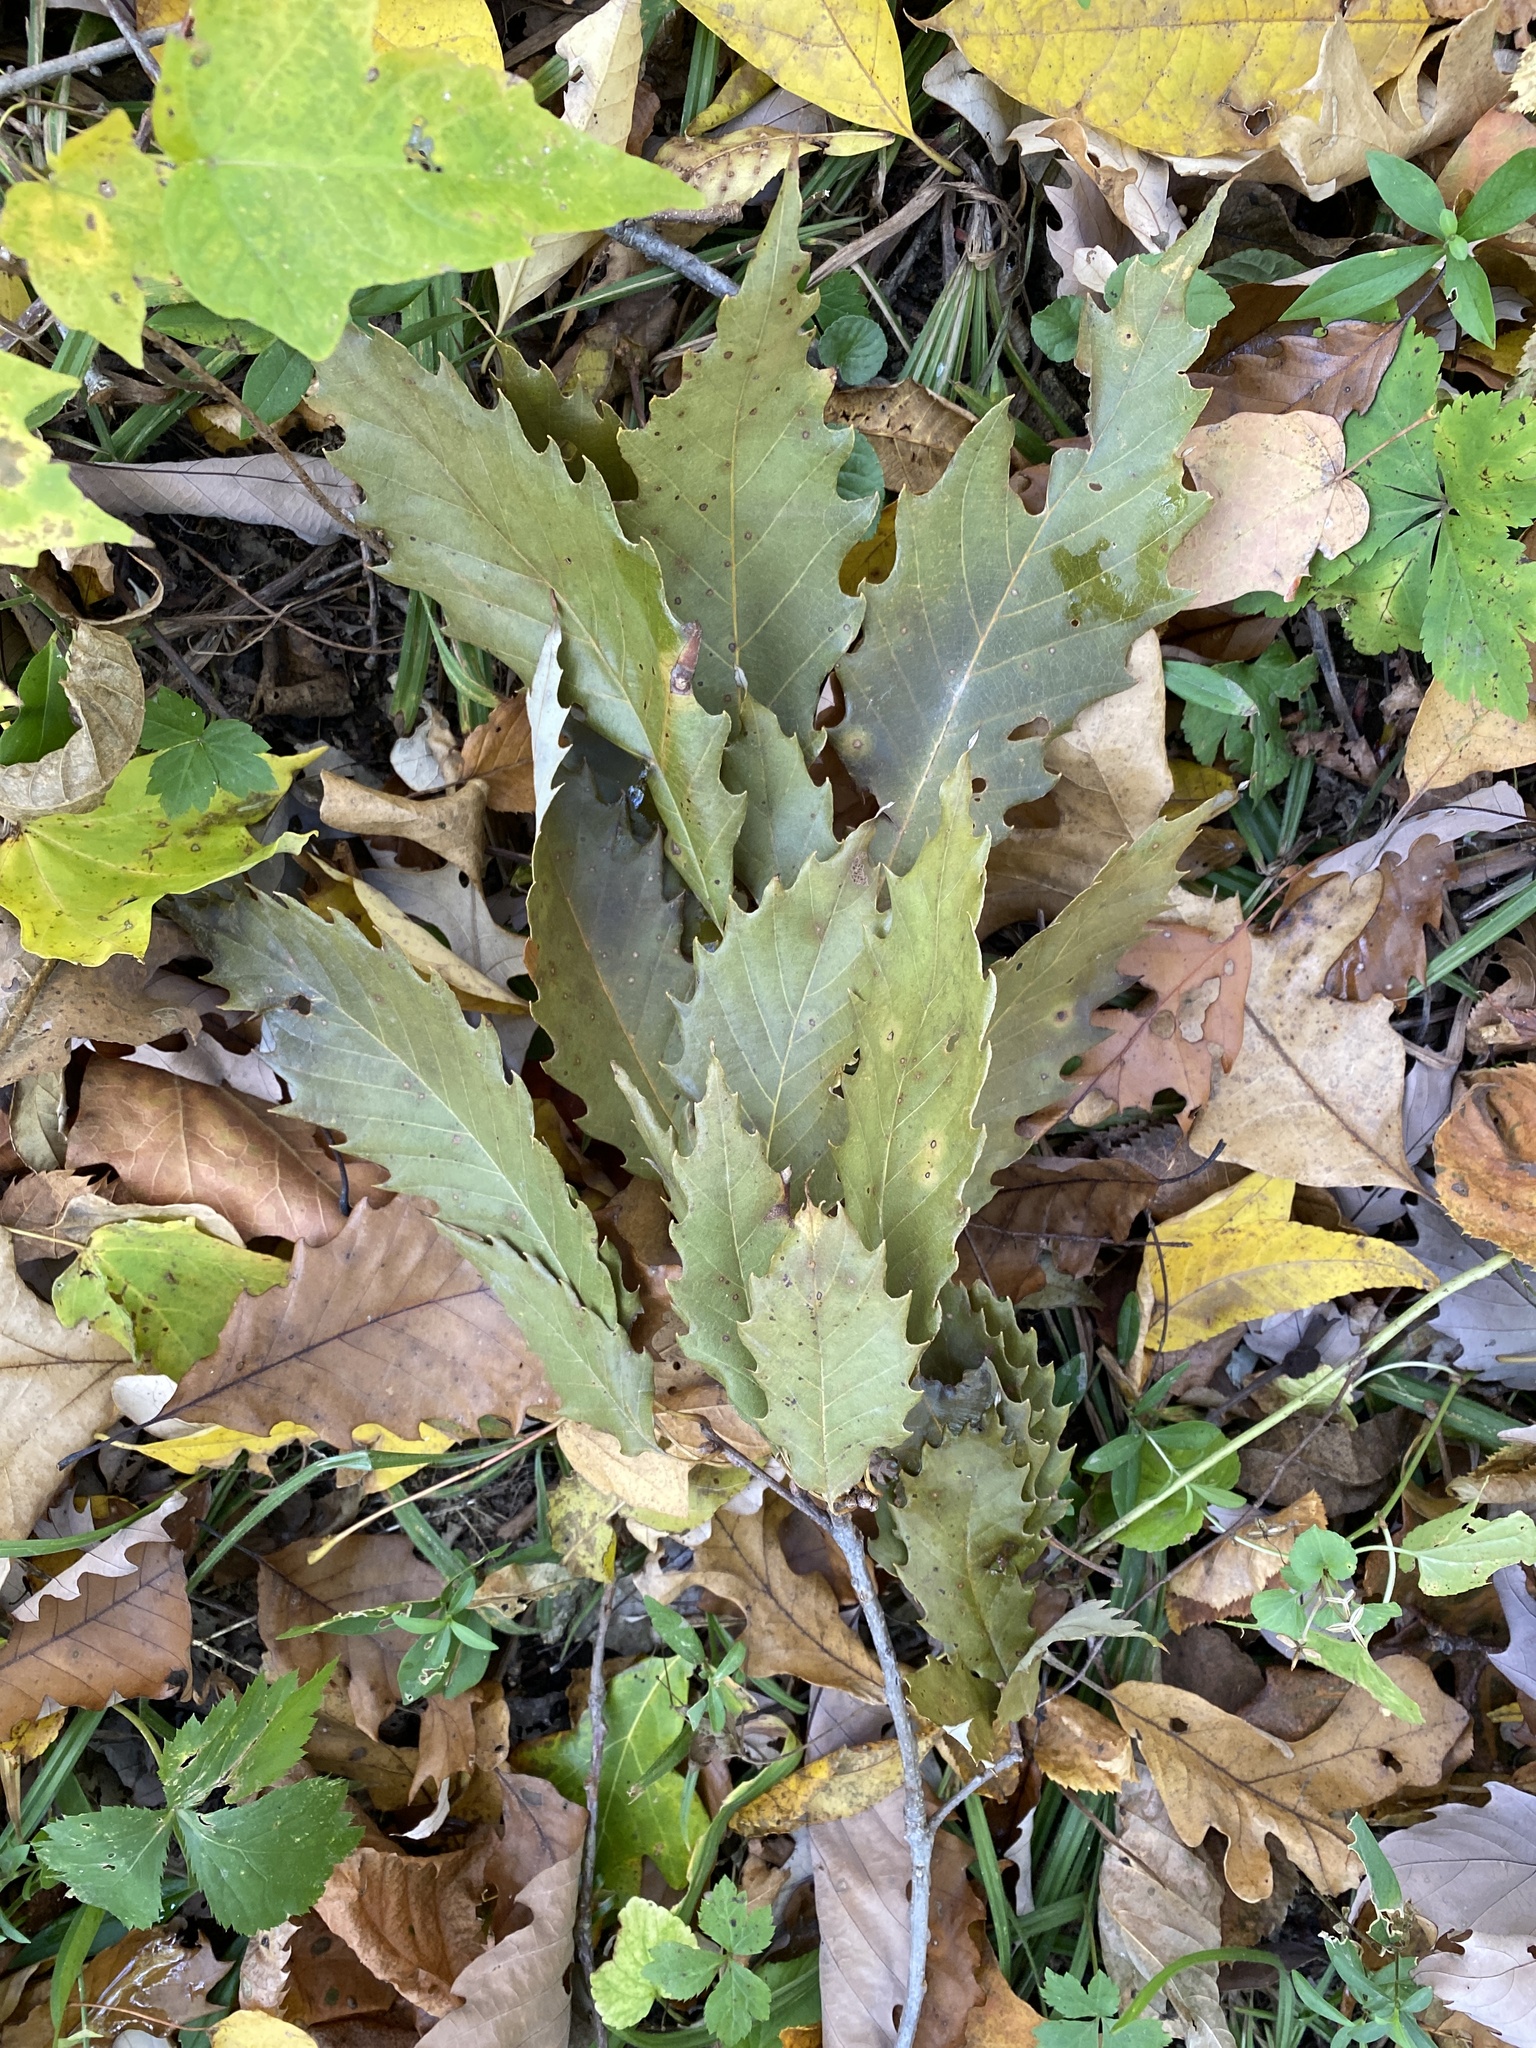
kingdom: Plantae
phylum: Tracheophyta
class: Magnoliopsida
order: Fagales
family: Fagaceae
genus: Quercus
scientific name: Quercus muehlenbergii
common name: Chinkapin oak
